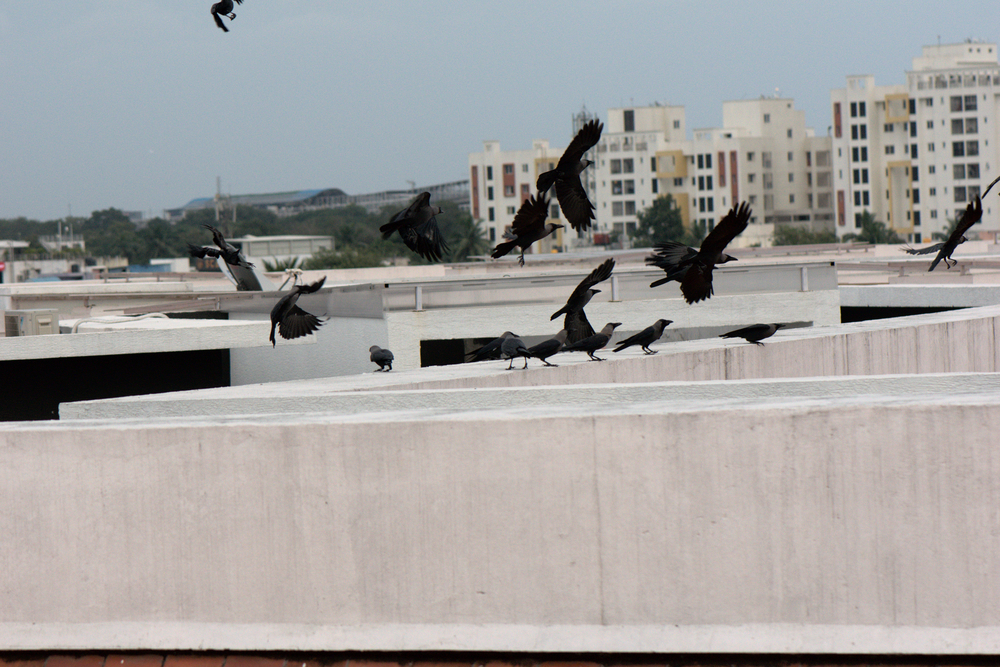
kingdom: Animalia
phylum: Chordata
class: Aves
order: Passeriformes
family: Corvidae
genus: Corvus
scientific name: Corvus splendens
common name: House crow
